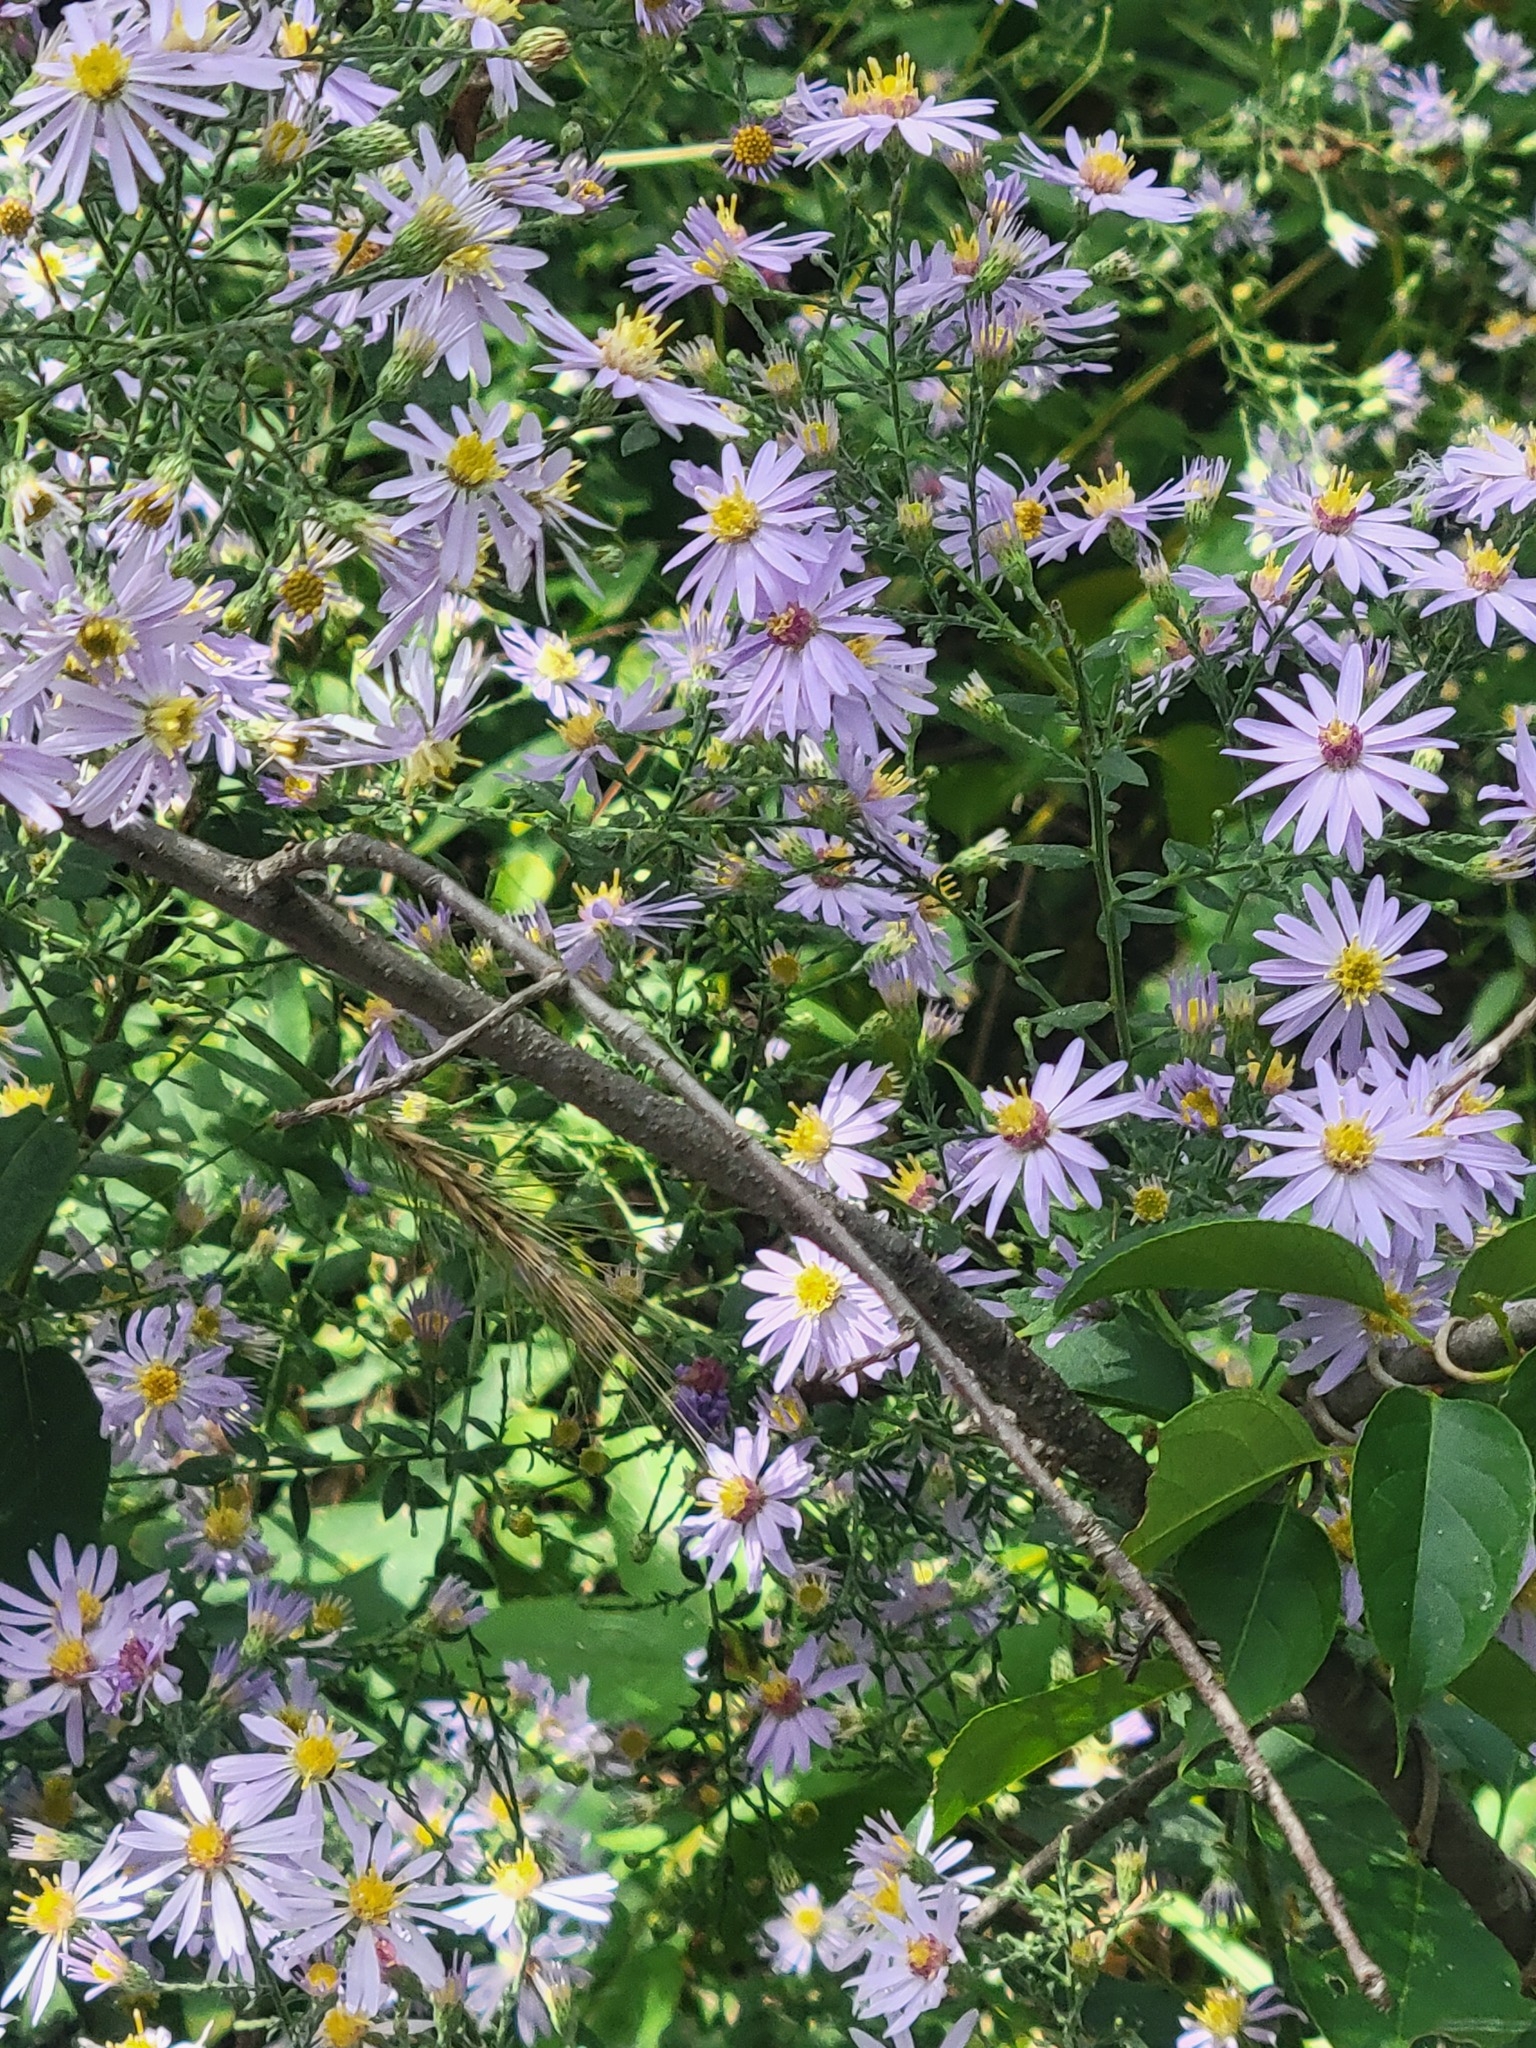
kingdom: Plantae
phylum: Tracheophyta
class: Magnoliopsida
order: Asterales
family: Asteraceae
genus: Symphyotrichum
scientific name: Symphyotrichum shortii
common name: Short's aster
